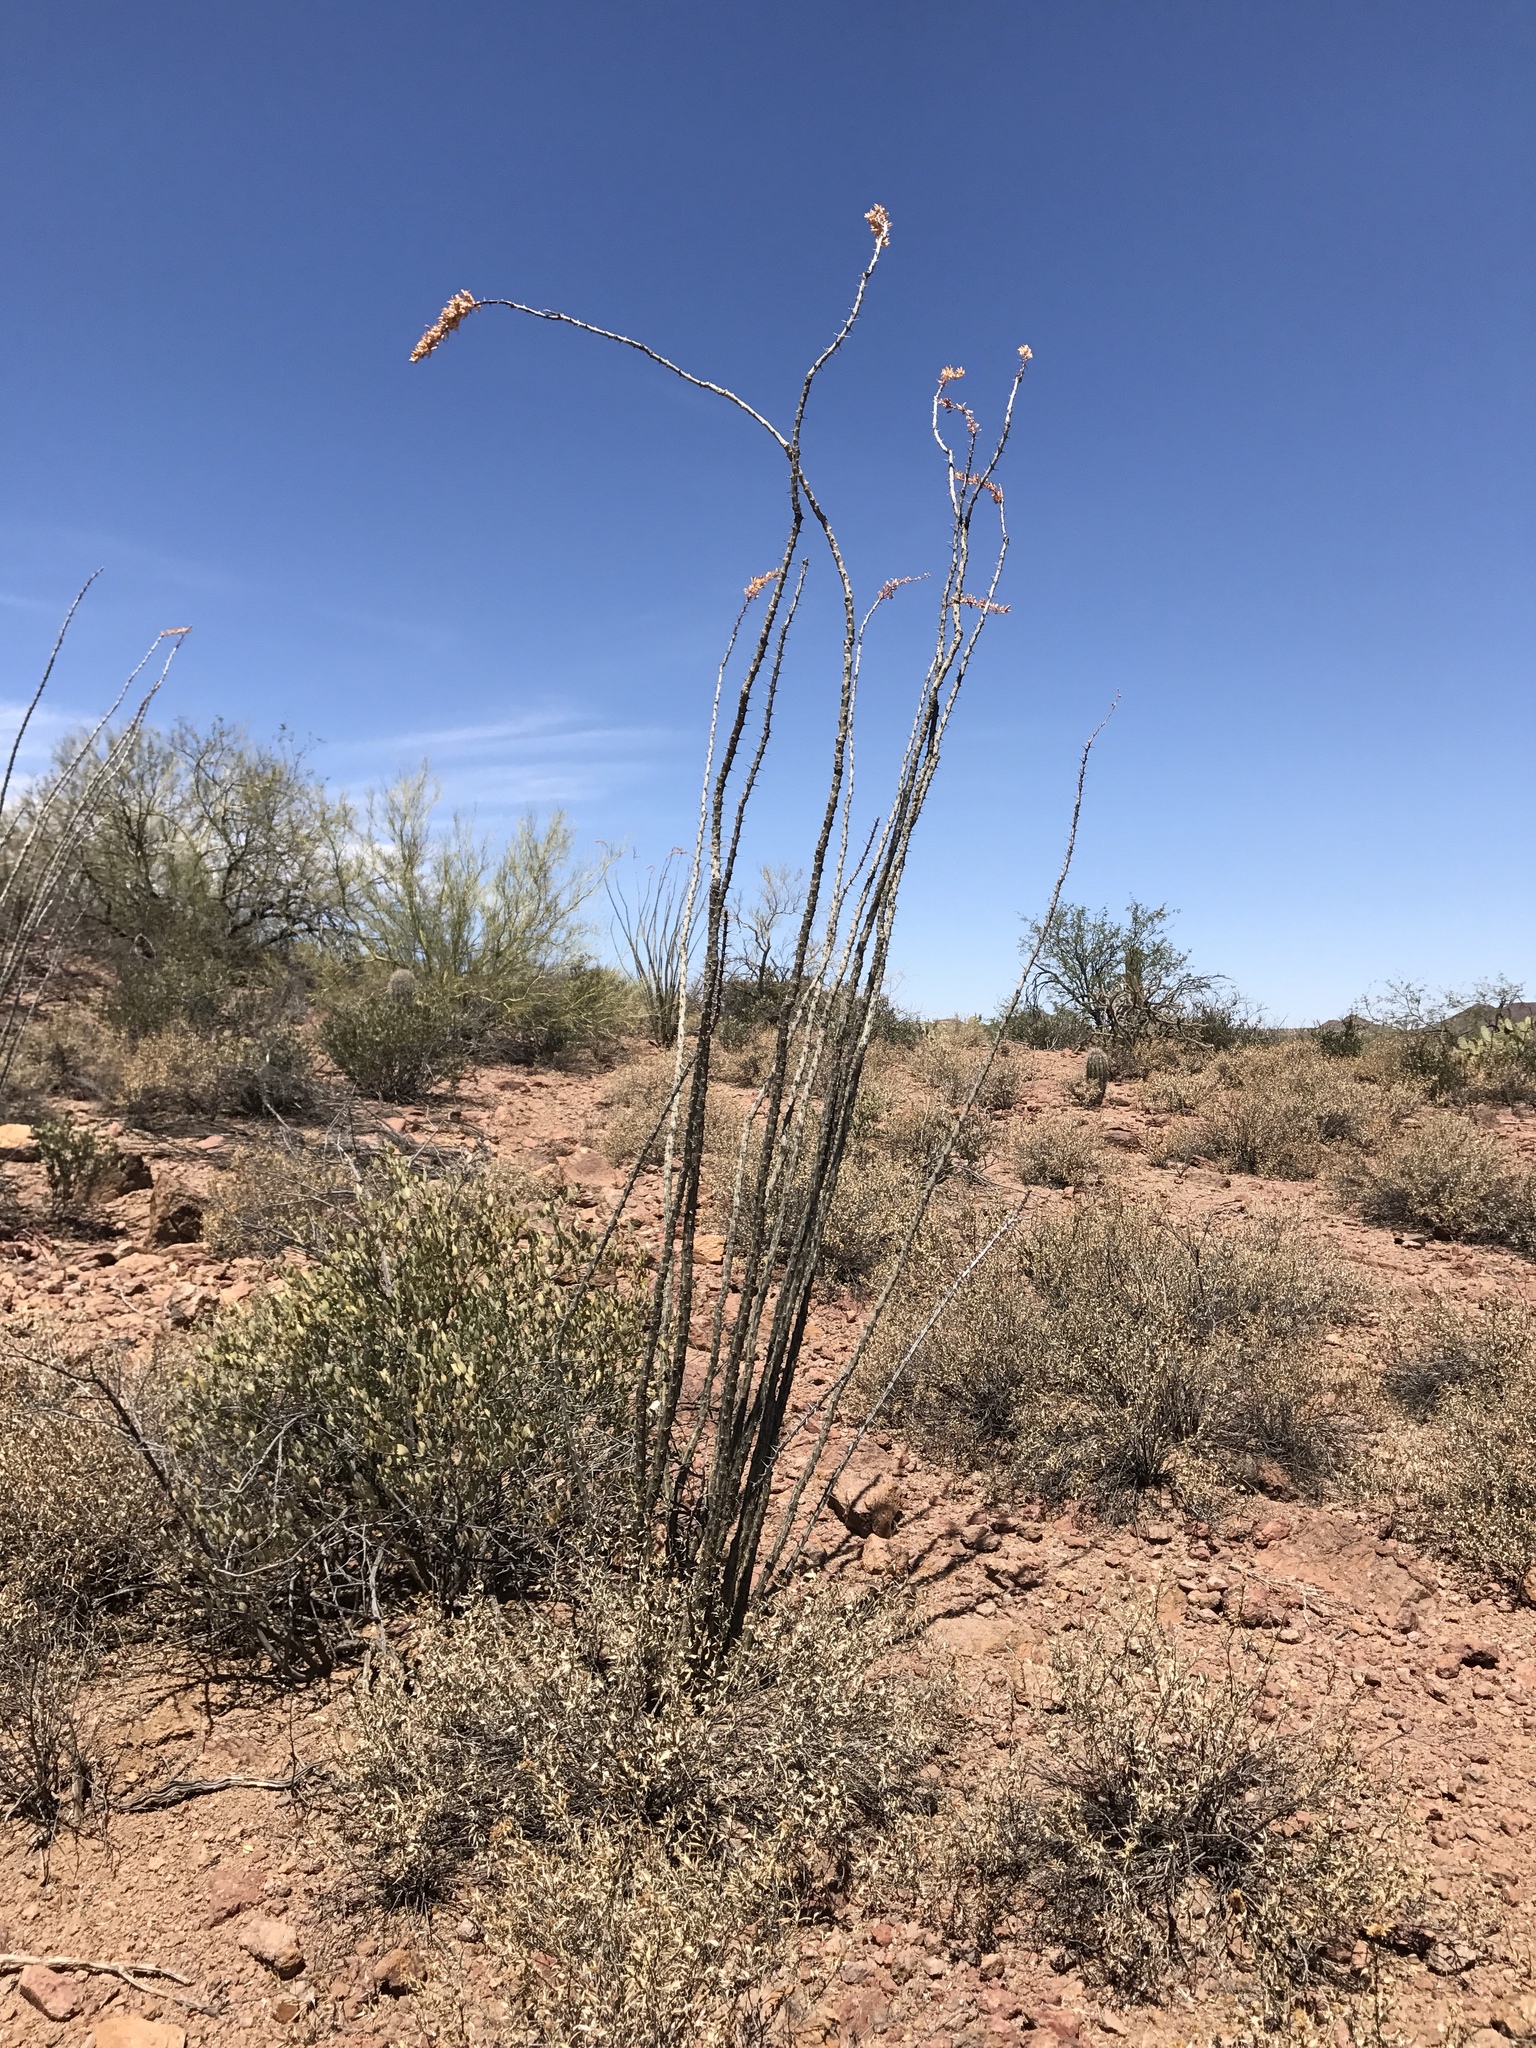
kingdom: Plantae
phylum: Tracheophyta
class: Magnoliopsida
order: Ericales
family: Fouquieriaceae
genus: Fouquieria
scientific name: Fouquieria splendens
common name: Vine-cactus
